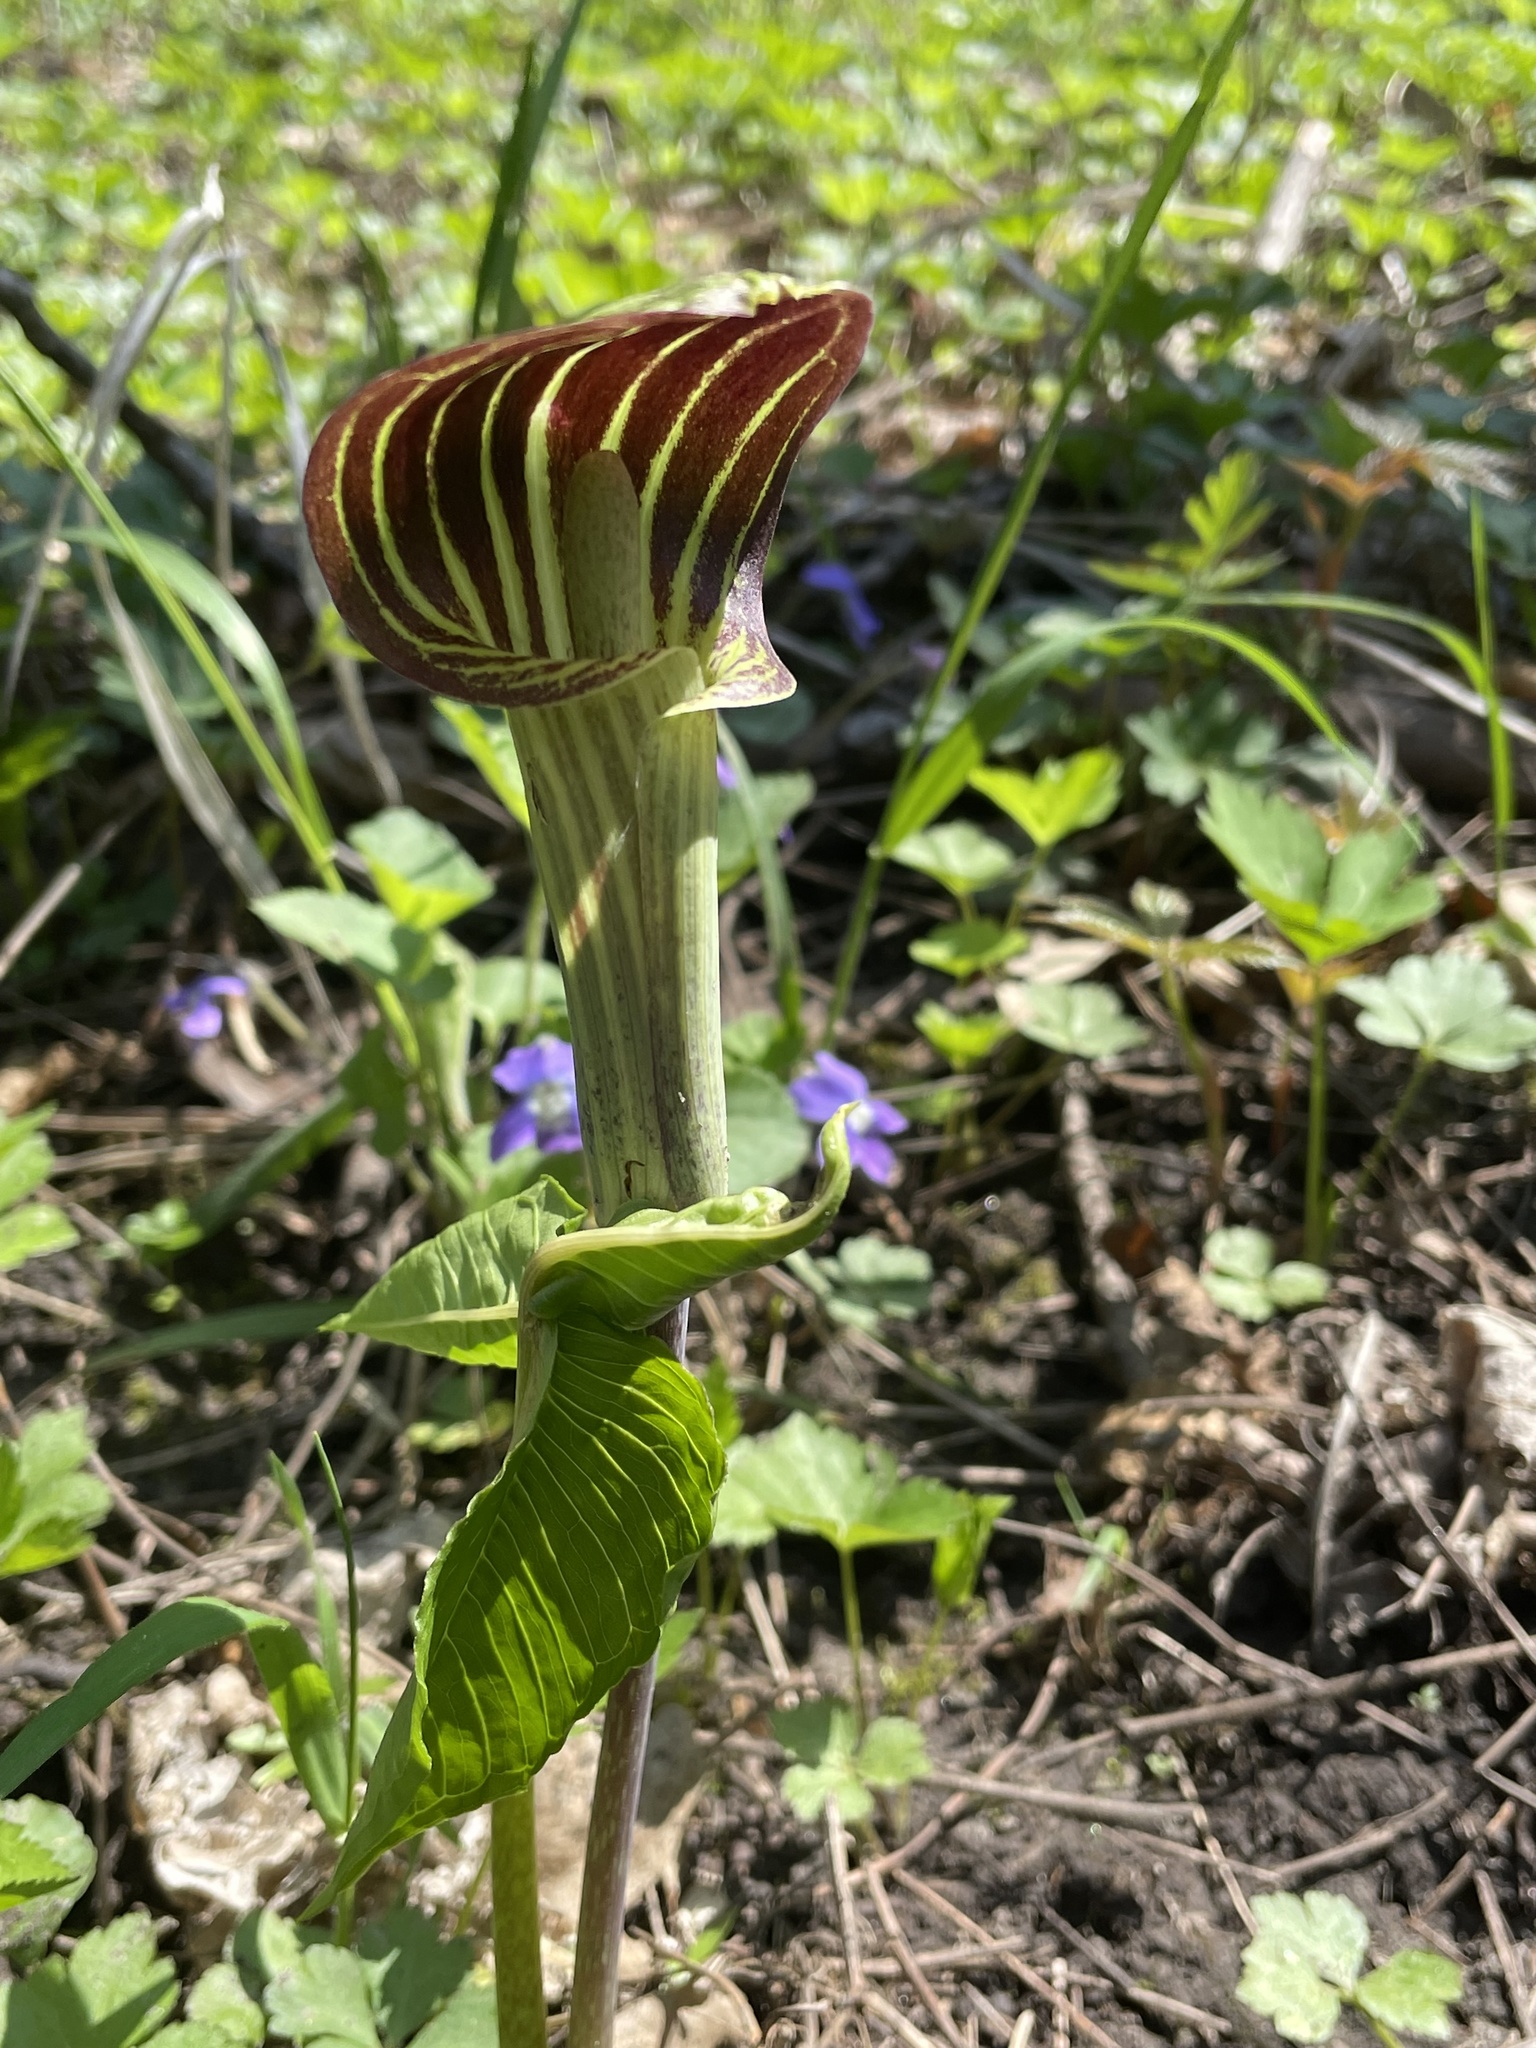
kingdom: Plantae
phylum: Tracheophyta
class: Liliopsida
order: Alismatales
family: Araceae
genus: Arisaema
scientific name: Arisaema triphyllum
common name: Jack-in-the-pulpit
